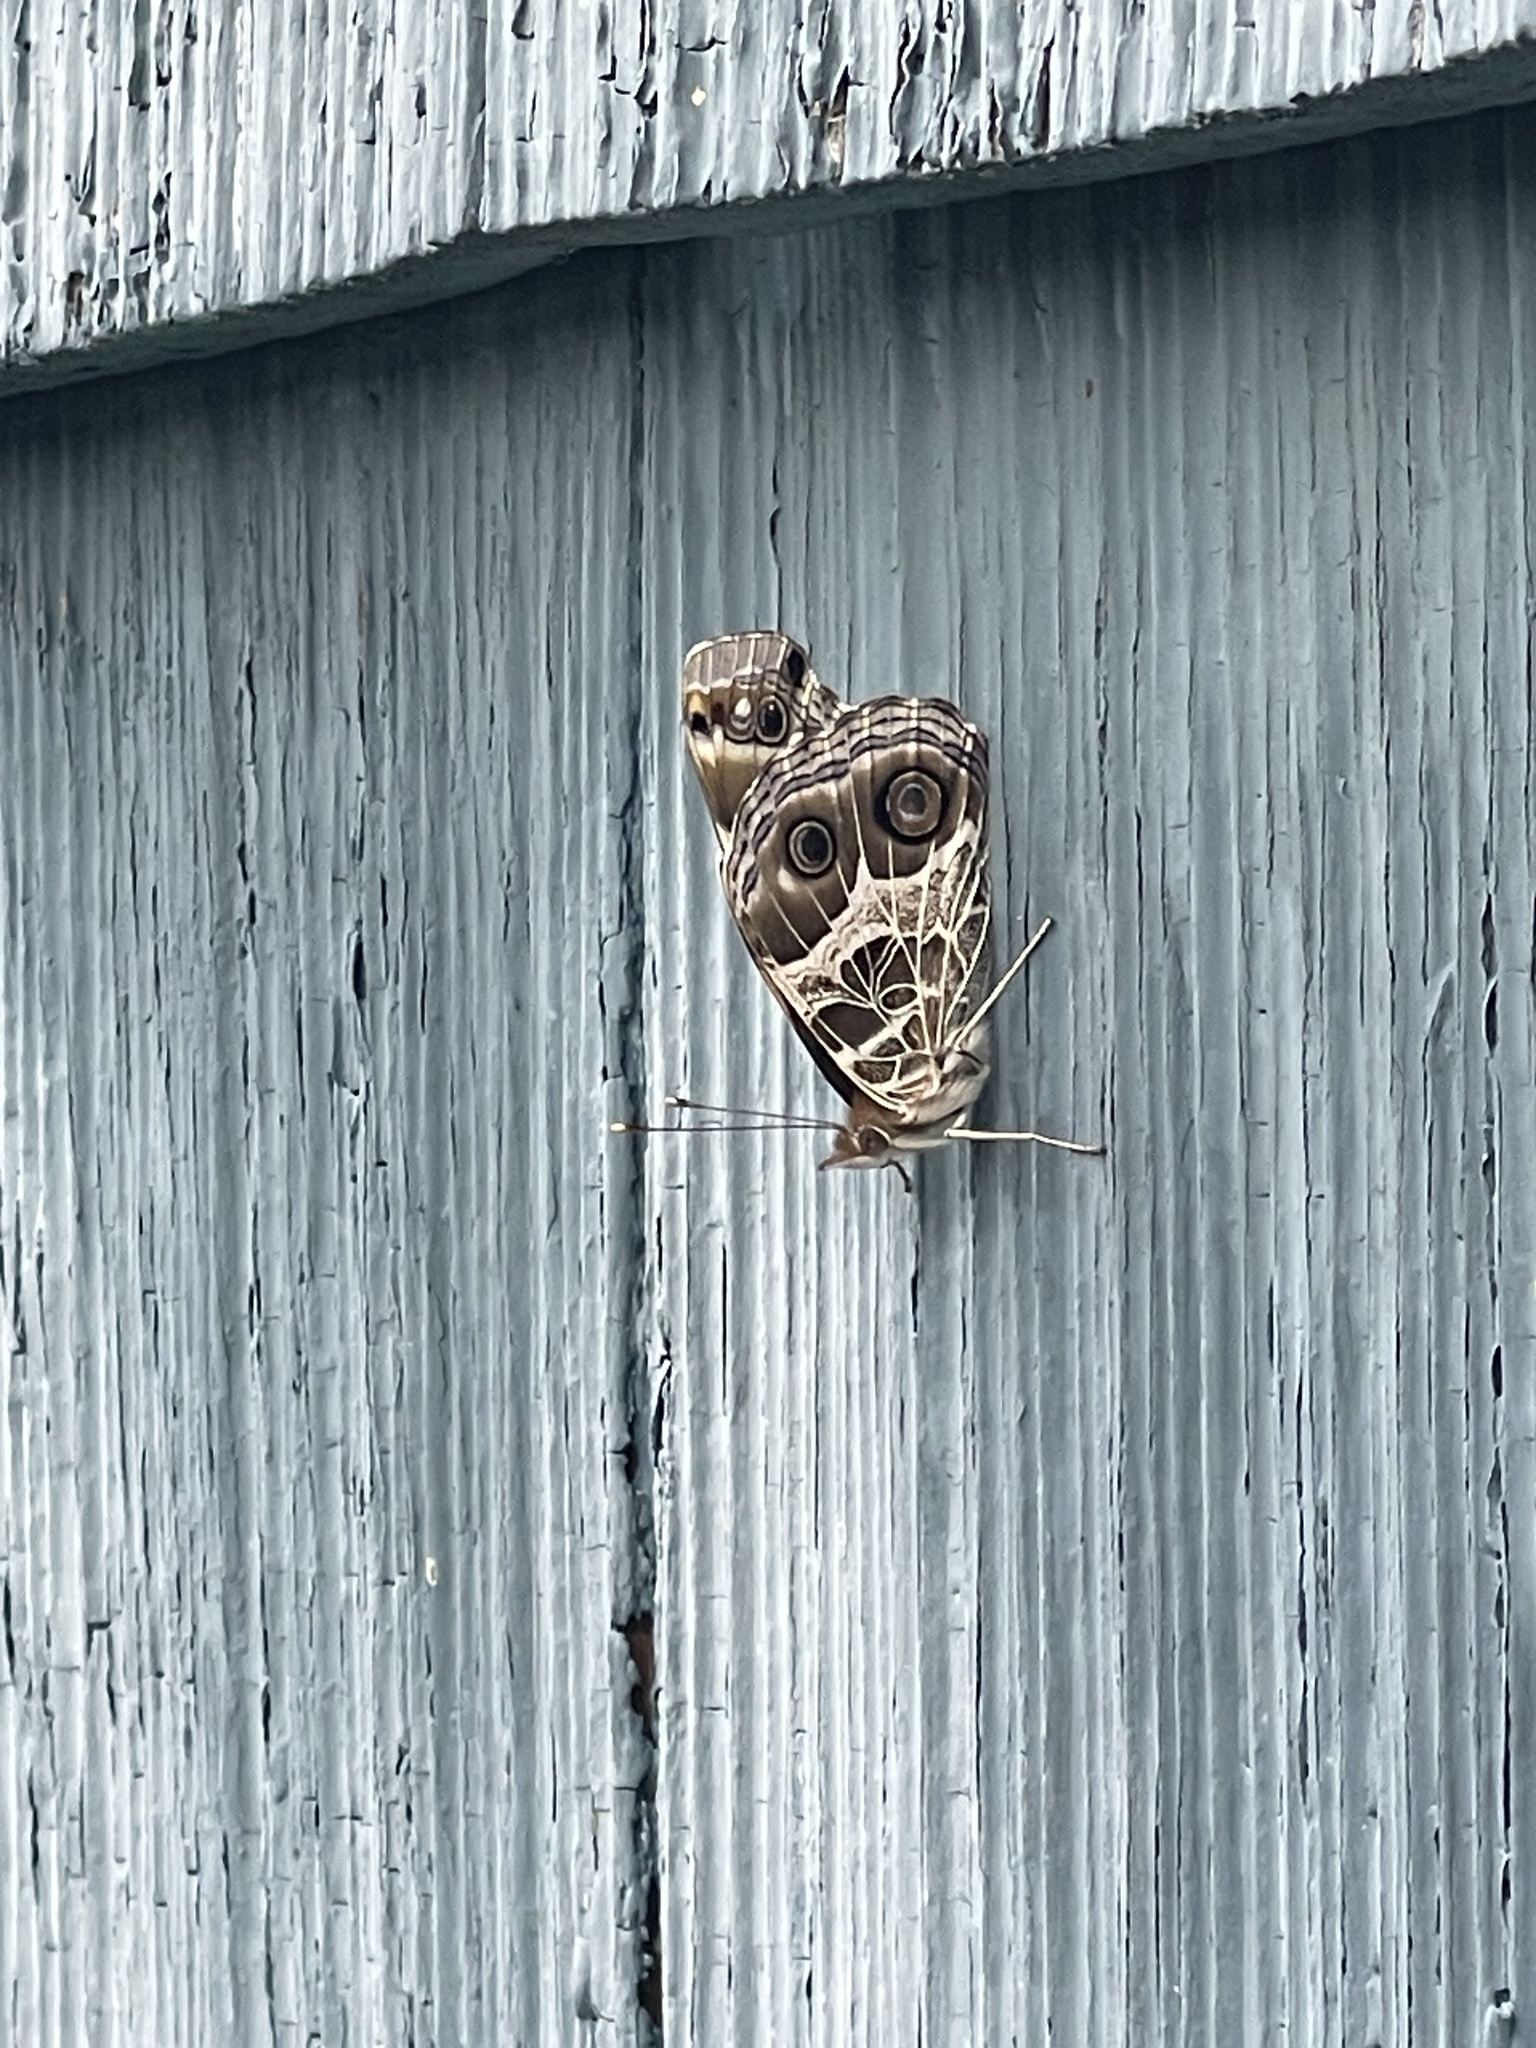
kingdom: Animalia
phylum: Arthropoda
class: Insecta
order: Lepidoptera
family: Nymphalidae
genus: Vanessa
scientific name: Vanessa virginiensis
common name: American lady
